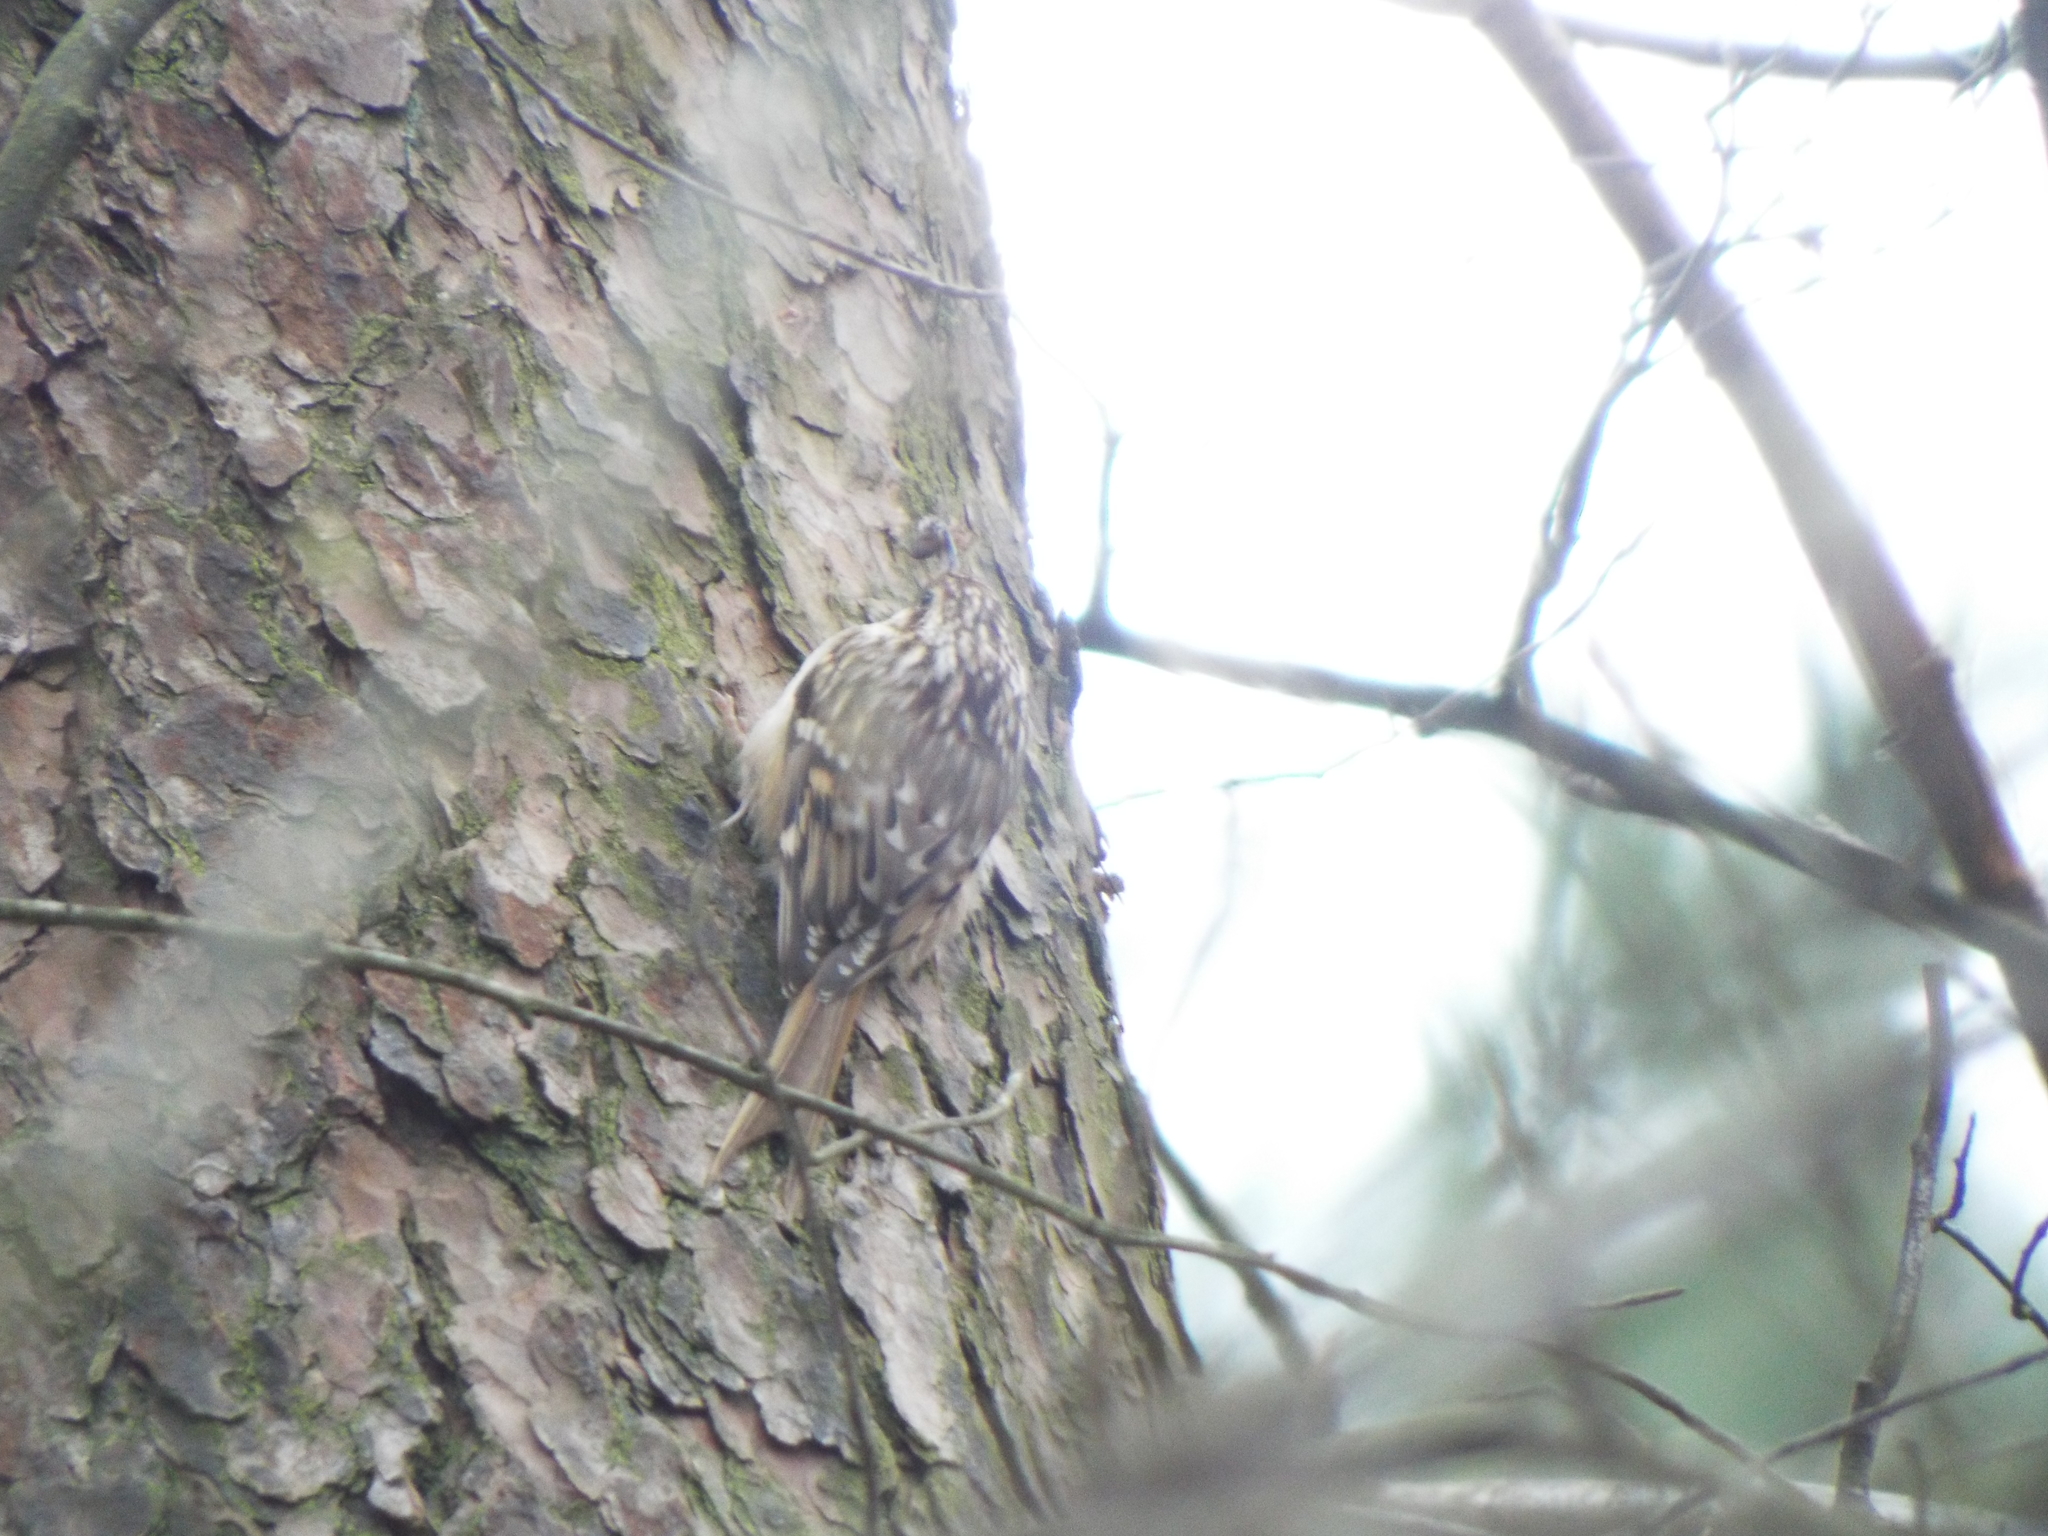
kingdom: Animalia
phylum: Chordata
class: Aves
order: Passeriformes
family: Certhiidae
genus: Certhia
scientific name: Certhia brachydactyla
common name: Short-toed treecreeper
